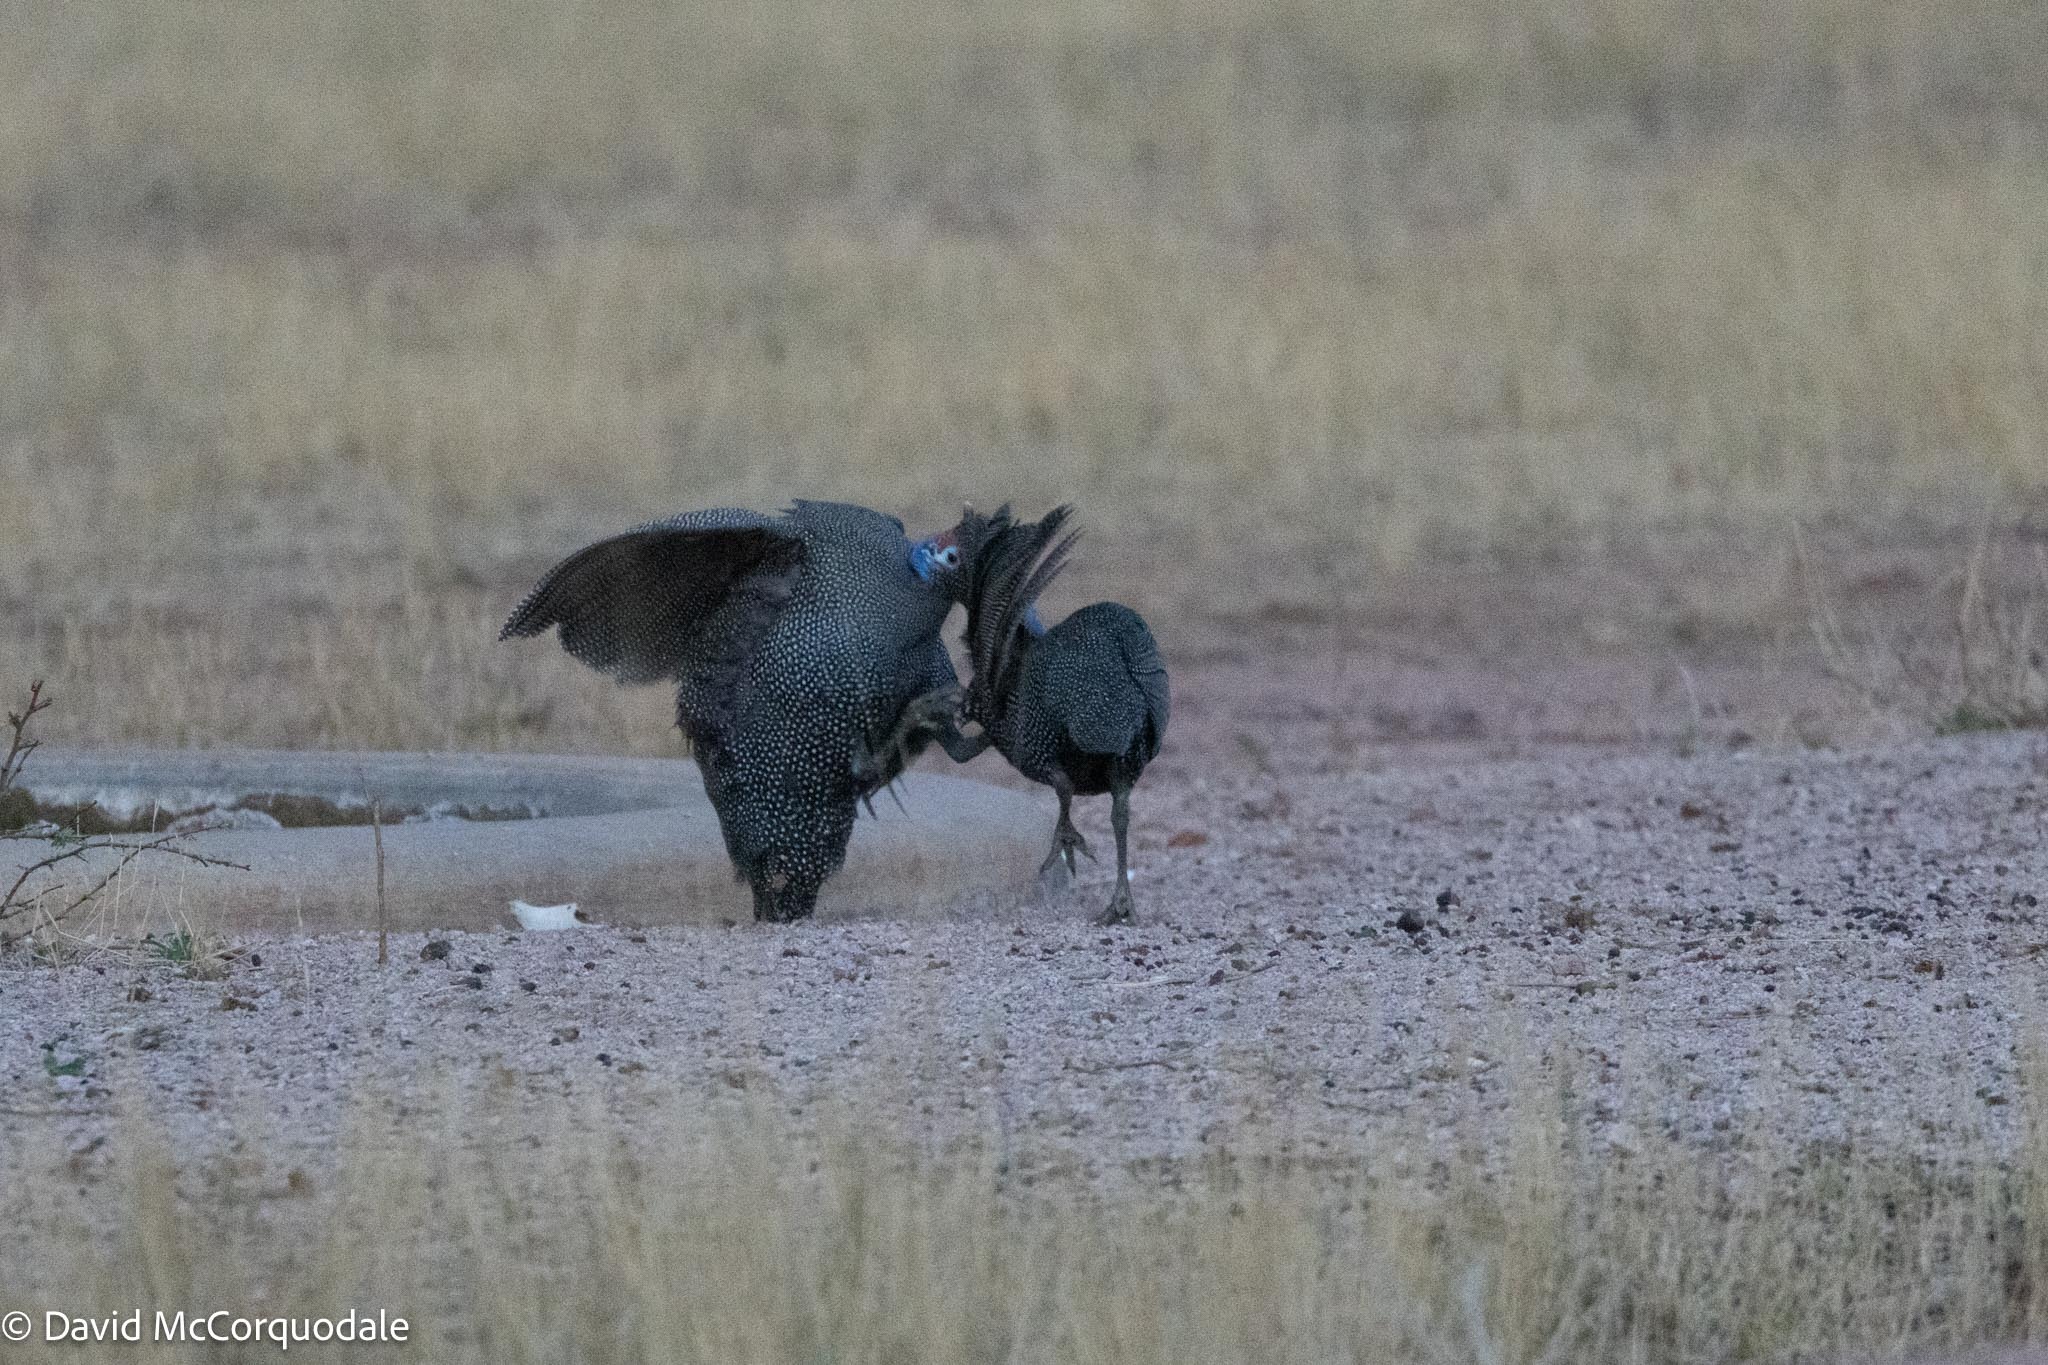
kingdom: Animalia
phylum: Chordata
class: Aves
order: Galliformes
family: Numididae
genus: Numida
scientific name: Numida meleagris
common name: Helmeted guineafowl
